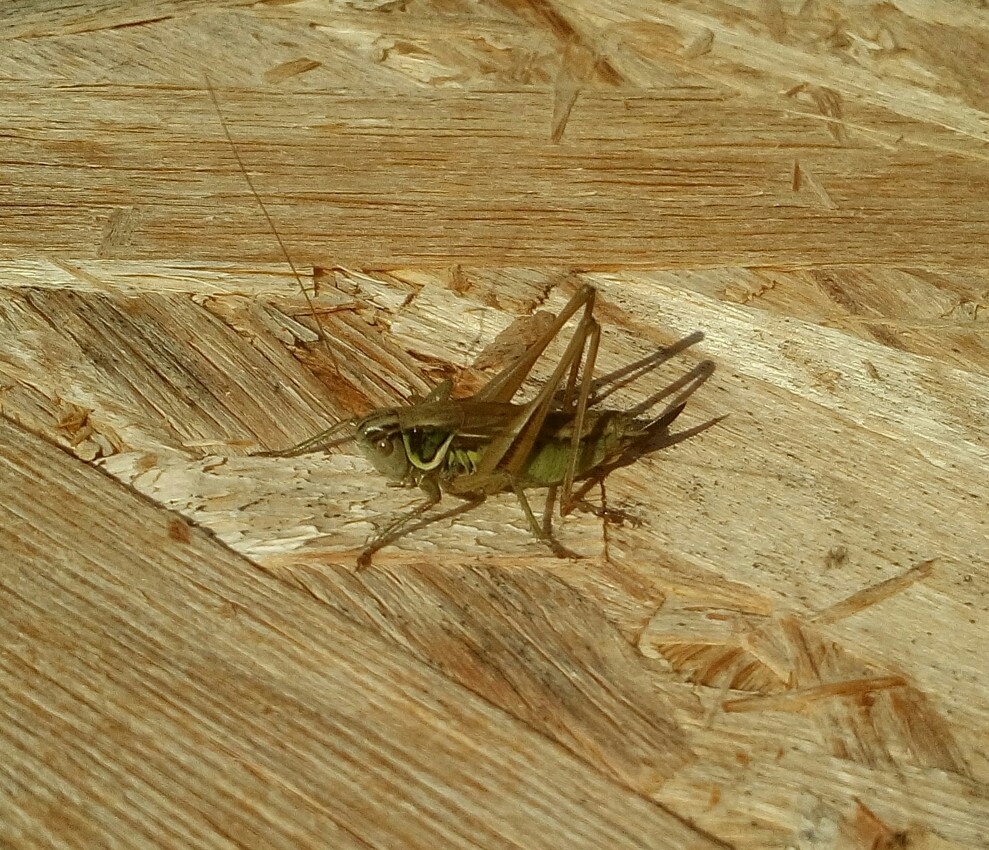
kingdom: Animalia
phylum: Arthropoda
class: Insecta
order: Orthoptera
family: Tettigoniidae
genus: Roeseliana
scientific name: Roeseliana roeselii
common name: Roesel's bush cricket
